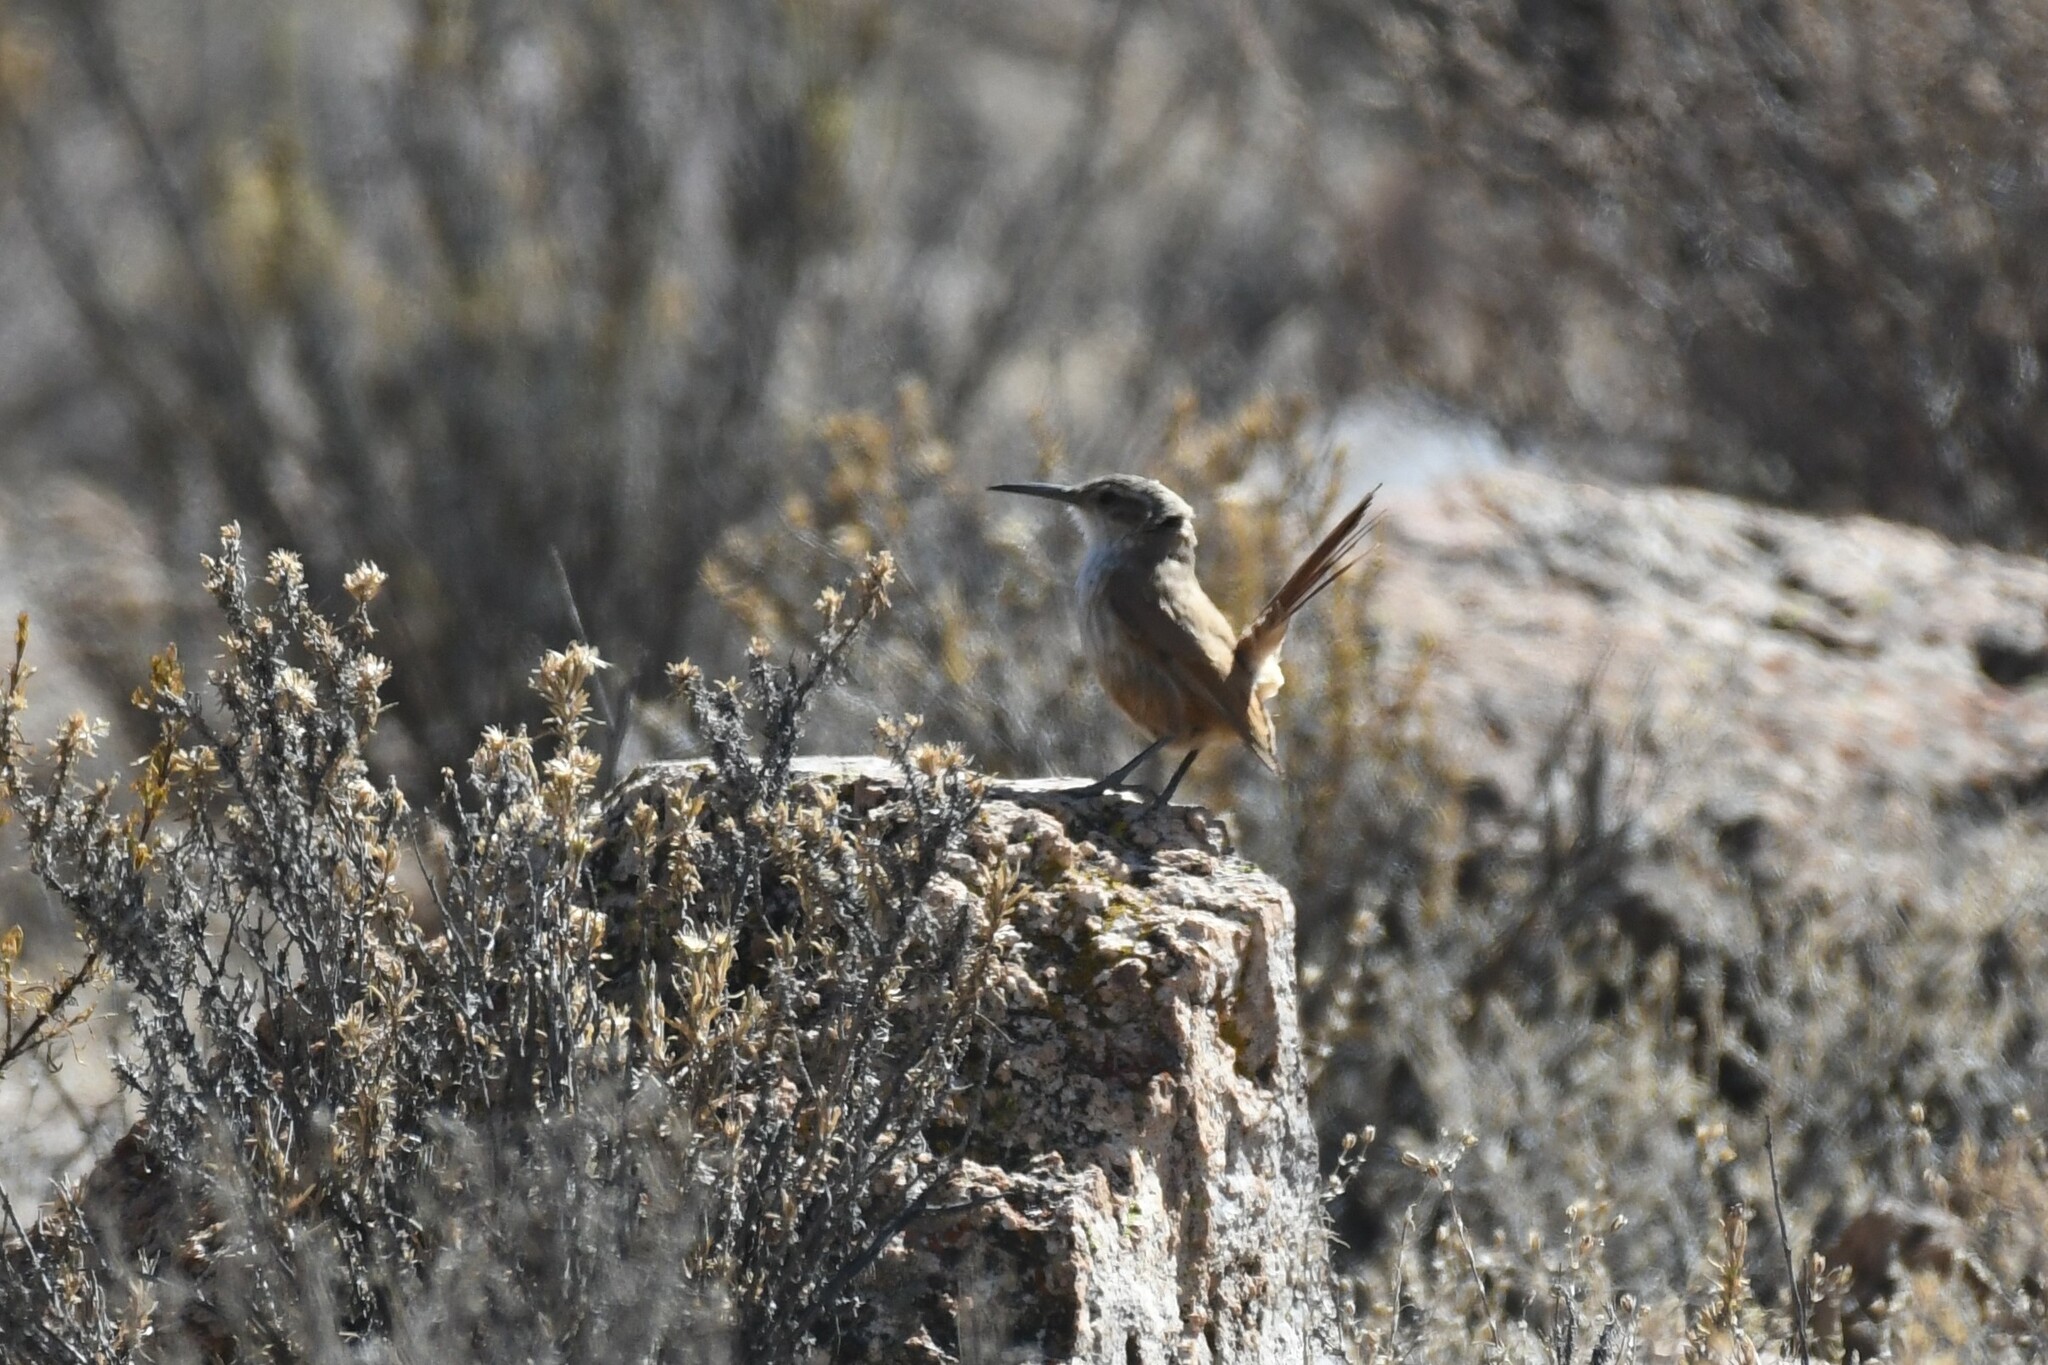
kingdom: Animalia
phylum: Chordata
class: Aves
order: Passeriformes
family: Furnariidae
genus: Upucerthia
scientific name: Upucerthia ruficaudus
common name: Straight-billed earthcreeper
